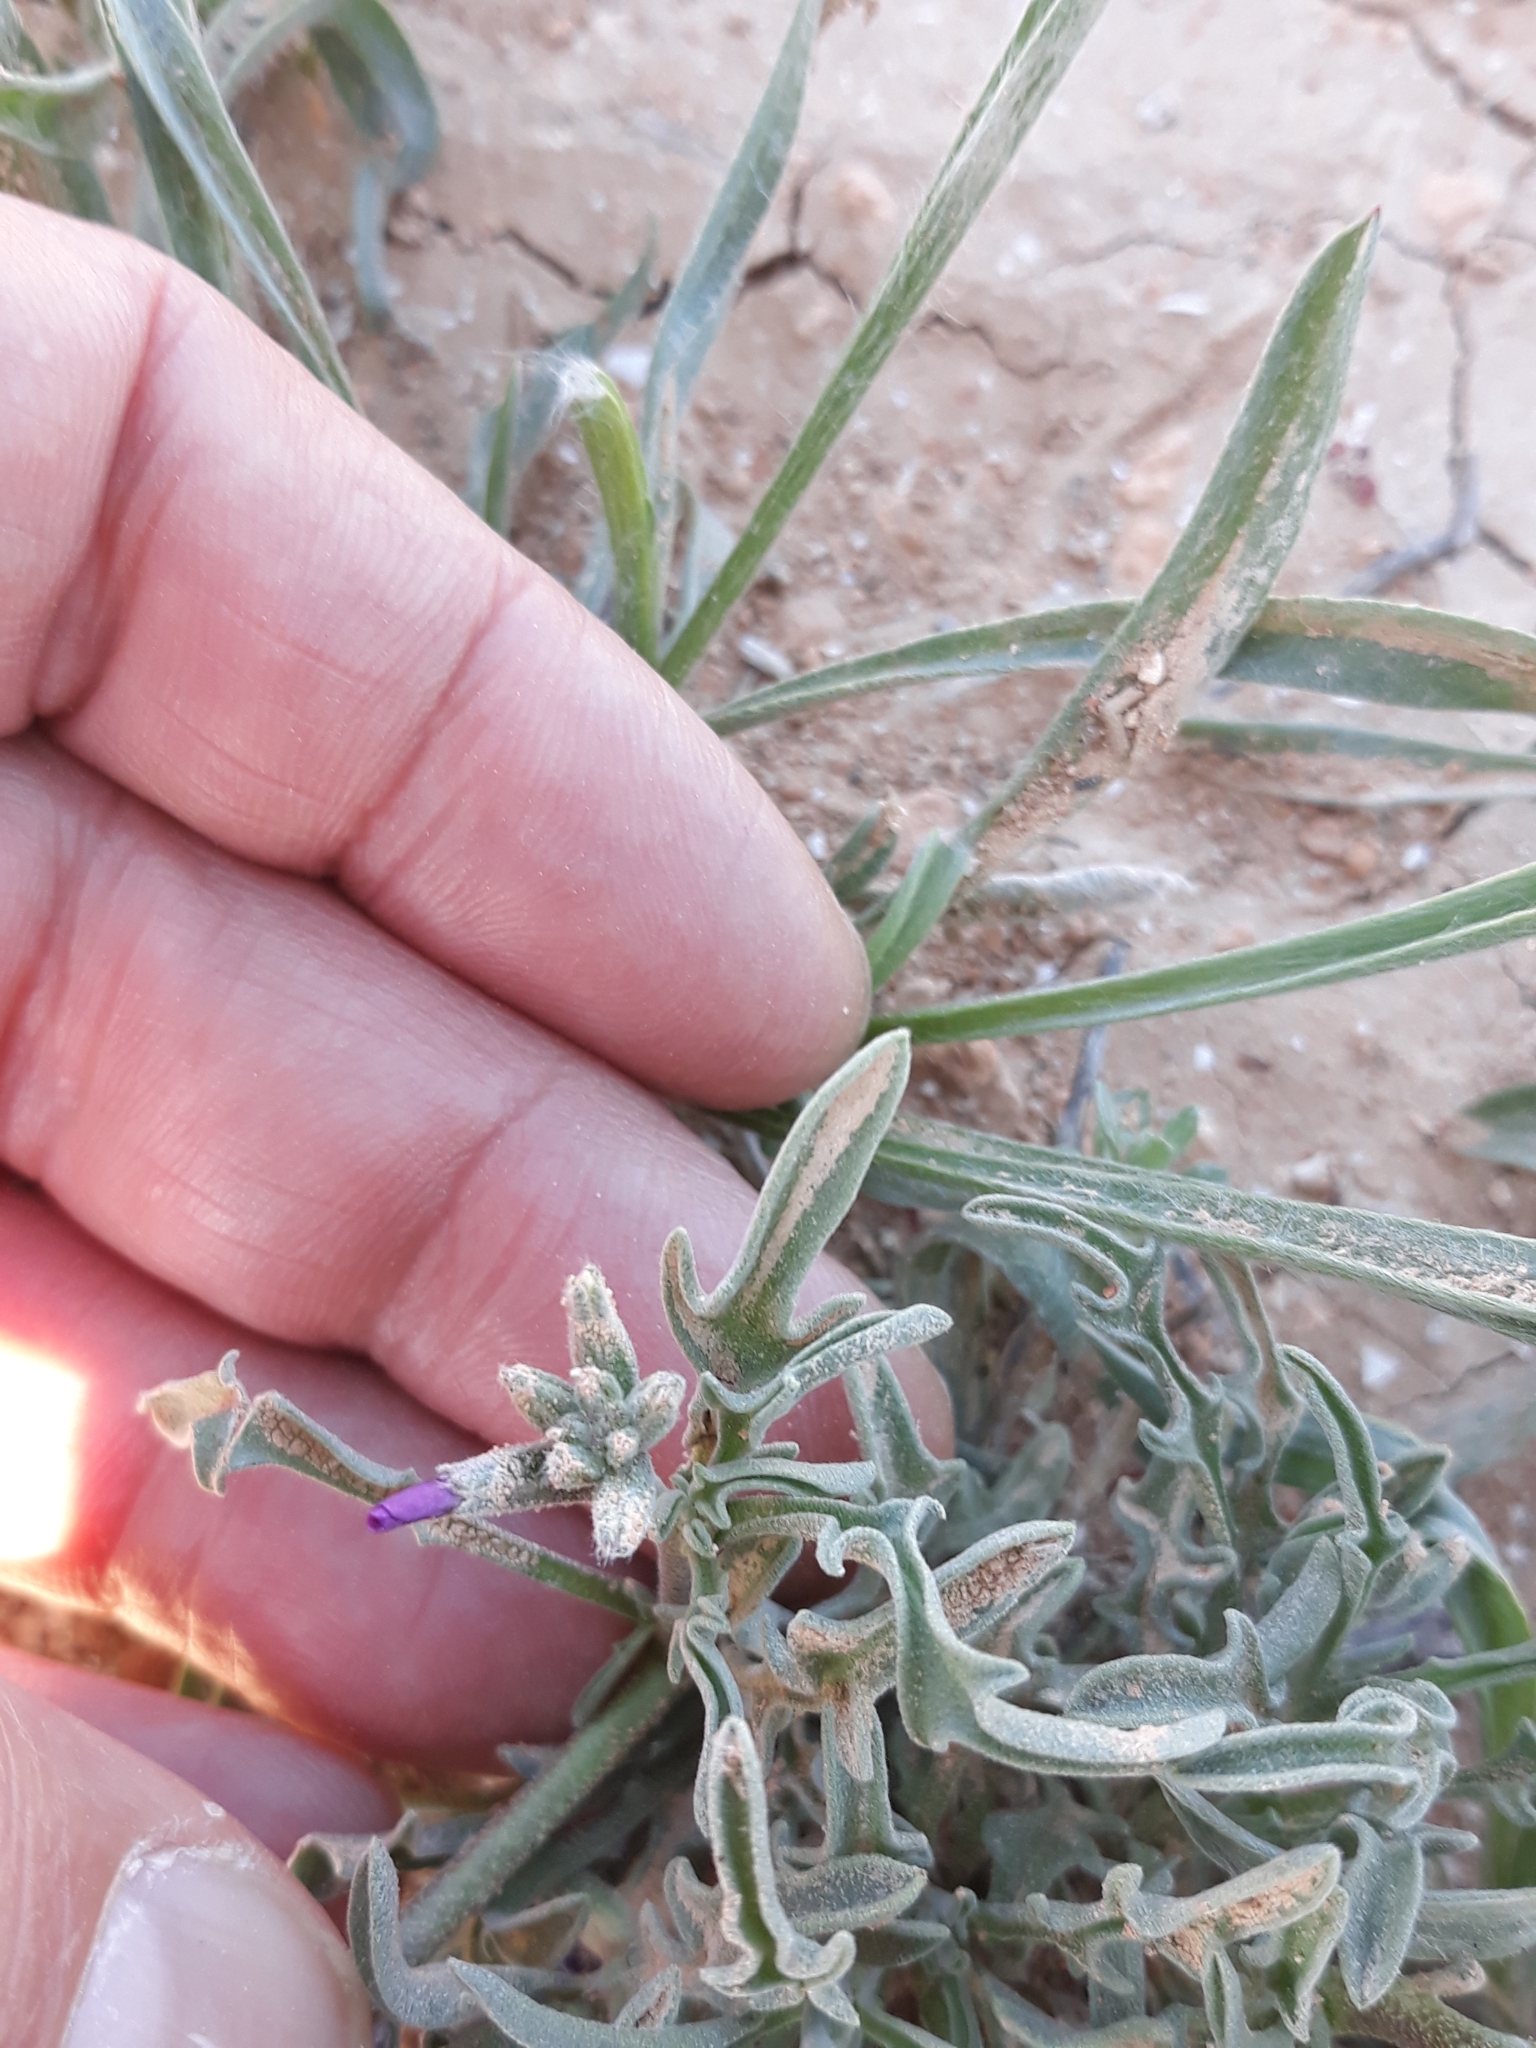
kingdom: Plantae
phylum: Tracheophyta
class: Magnoliopsida
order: Brassicales
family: Brassicaceae
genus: Matthiola
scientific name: Matthiola fruticulosa
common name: Sad stock
